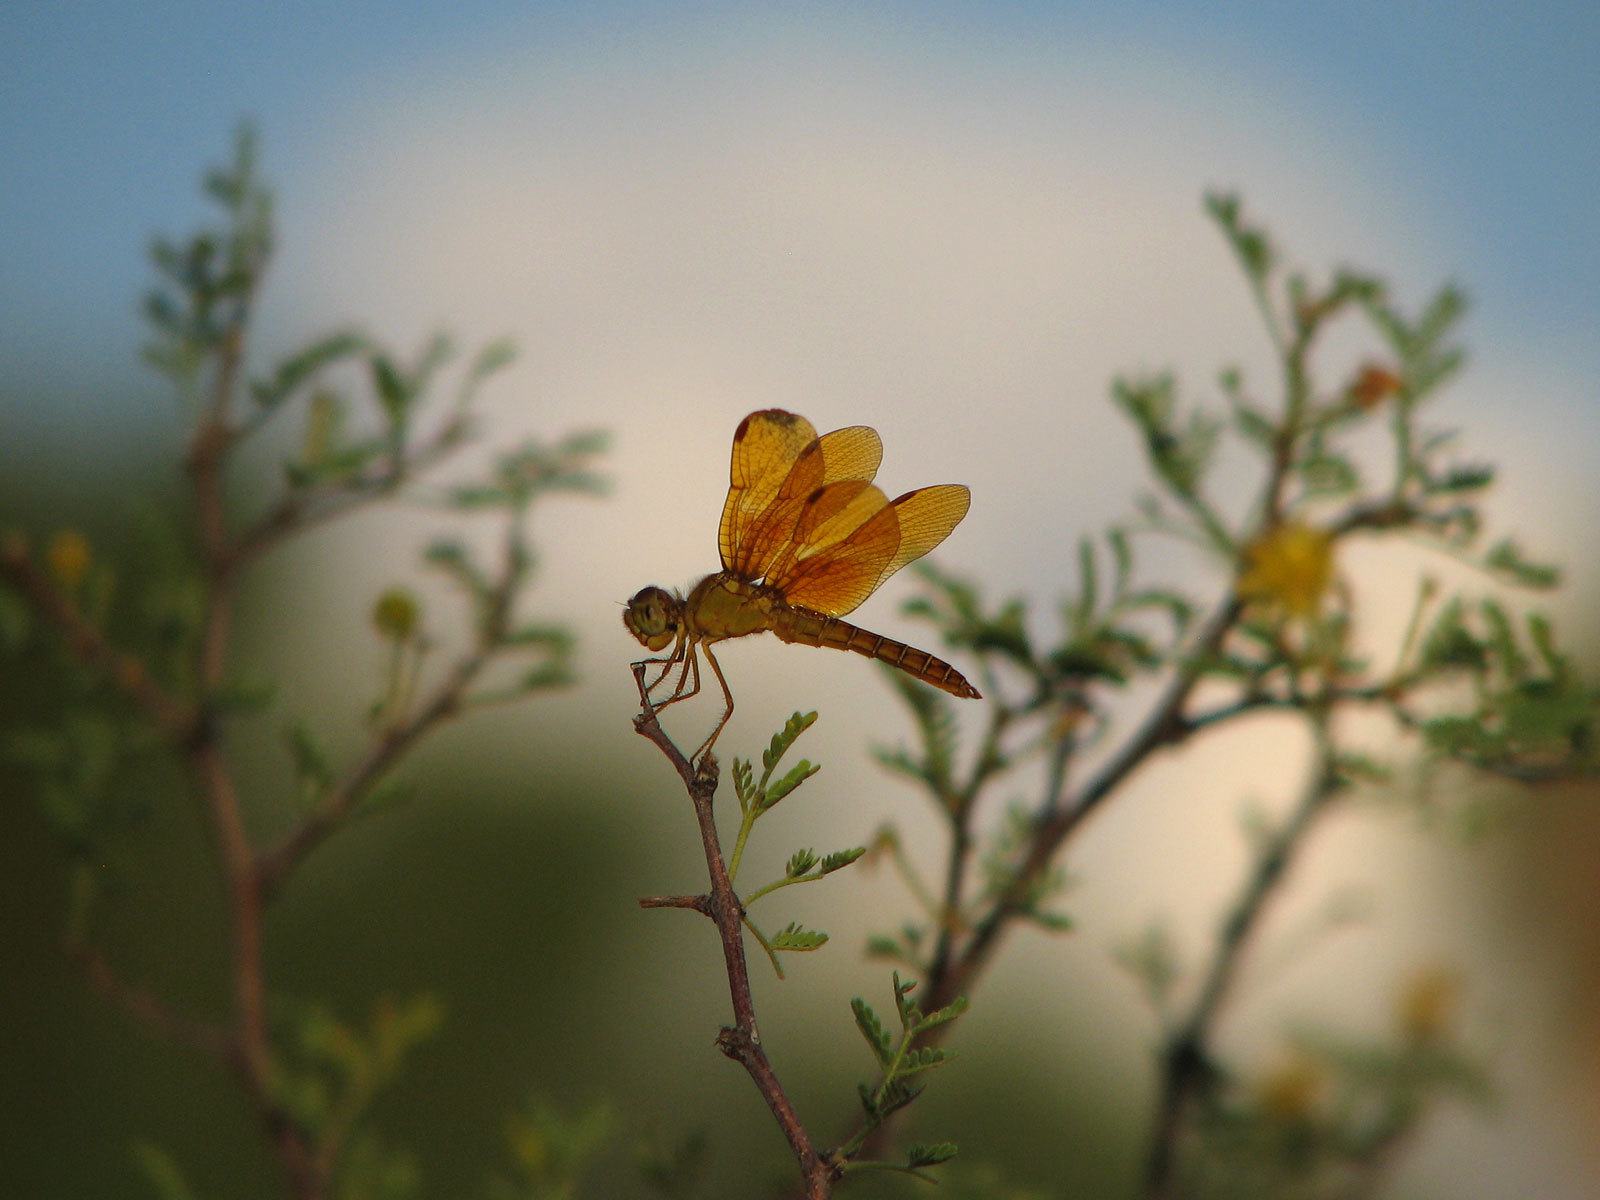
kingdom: Animalia
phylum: Arthropoda
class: Insecta
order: Odonata
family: Libellulidae
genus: Perithemis
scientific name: Perithemis intensa
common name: Mexican amberwing
